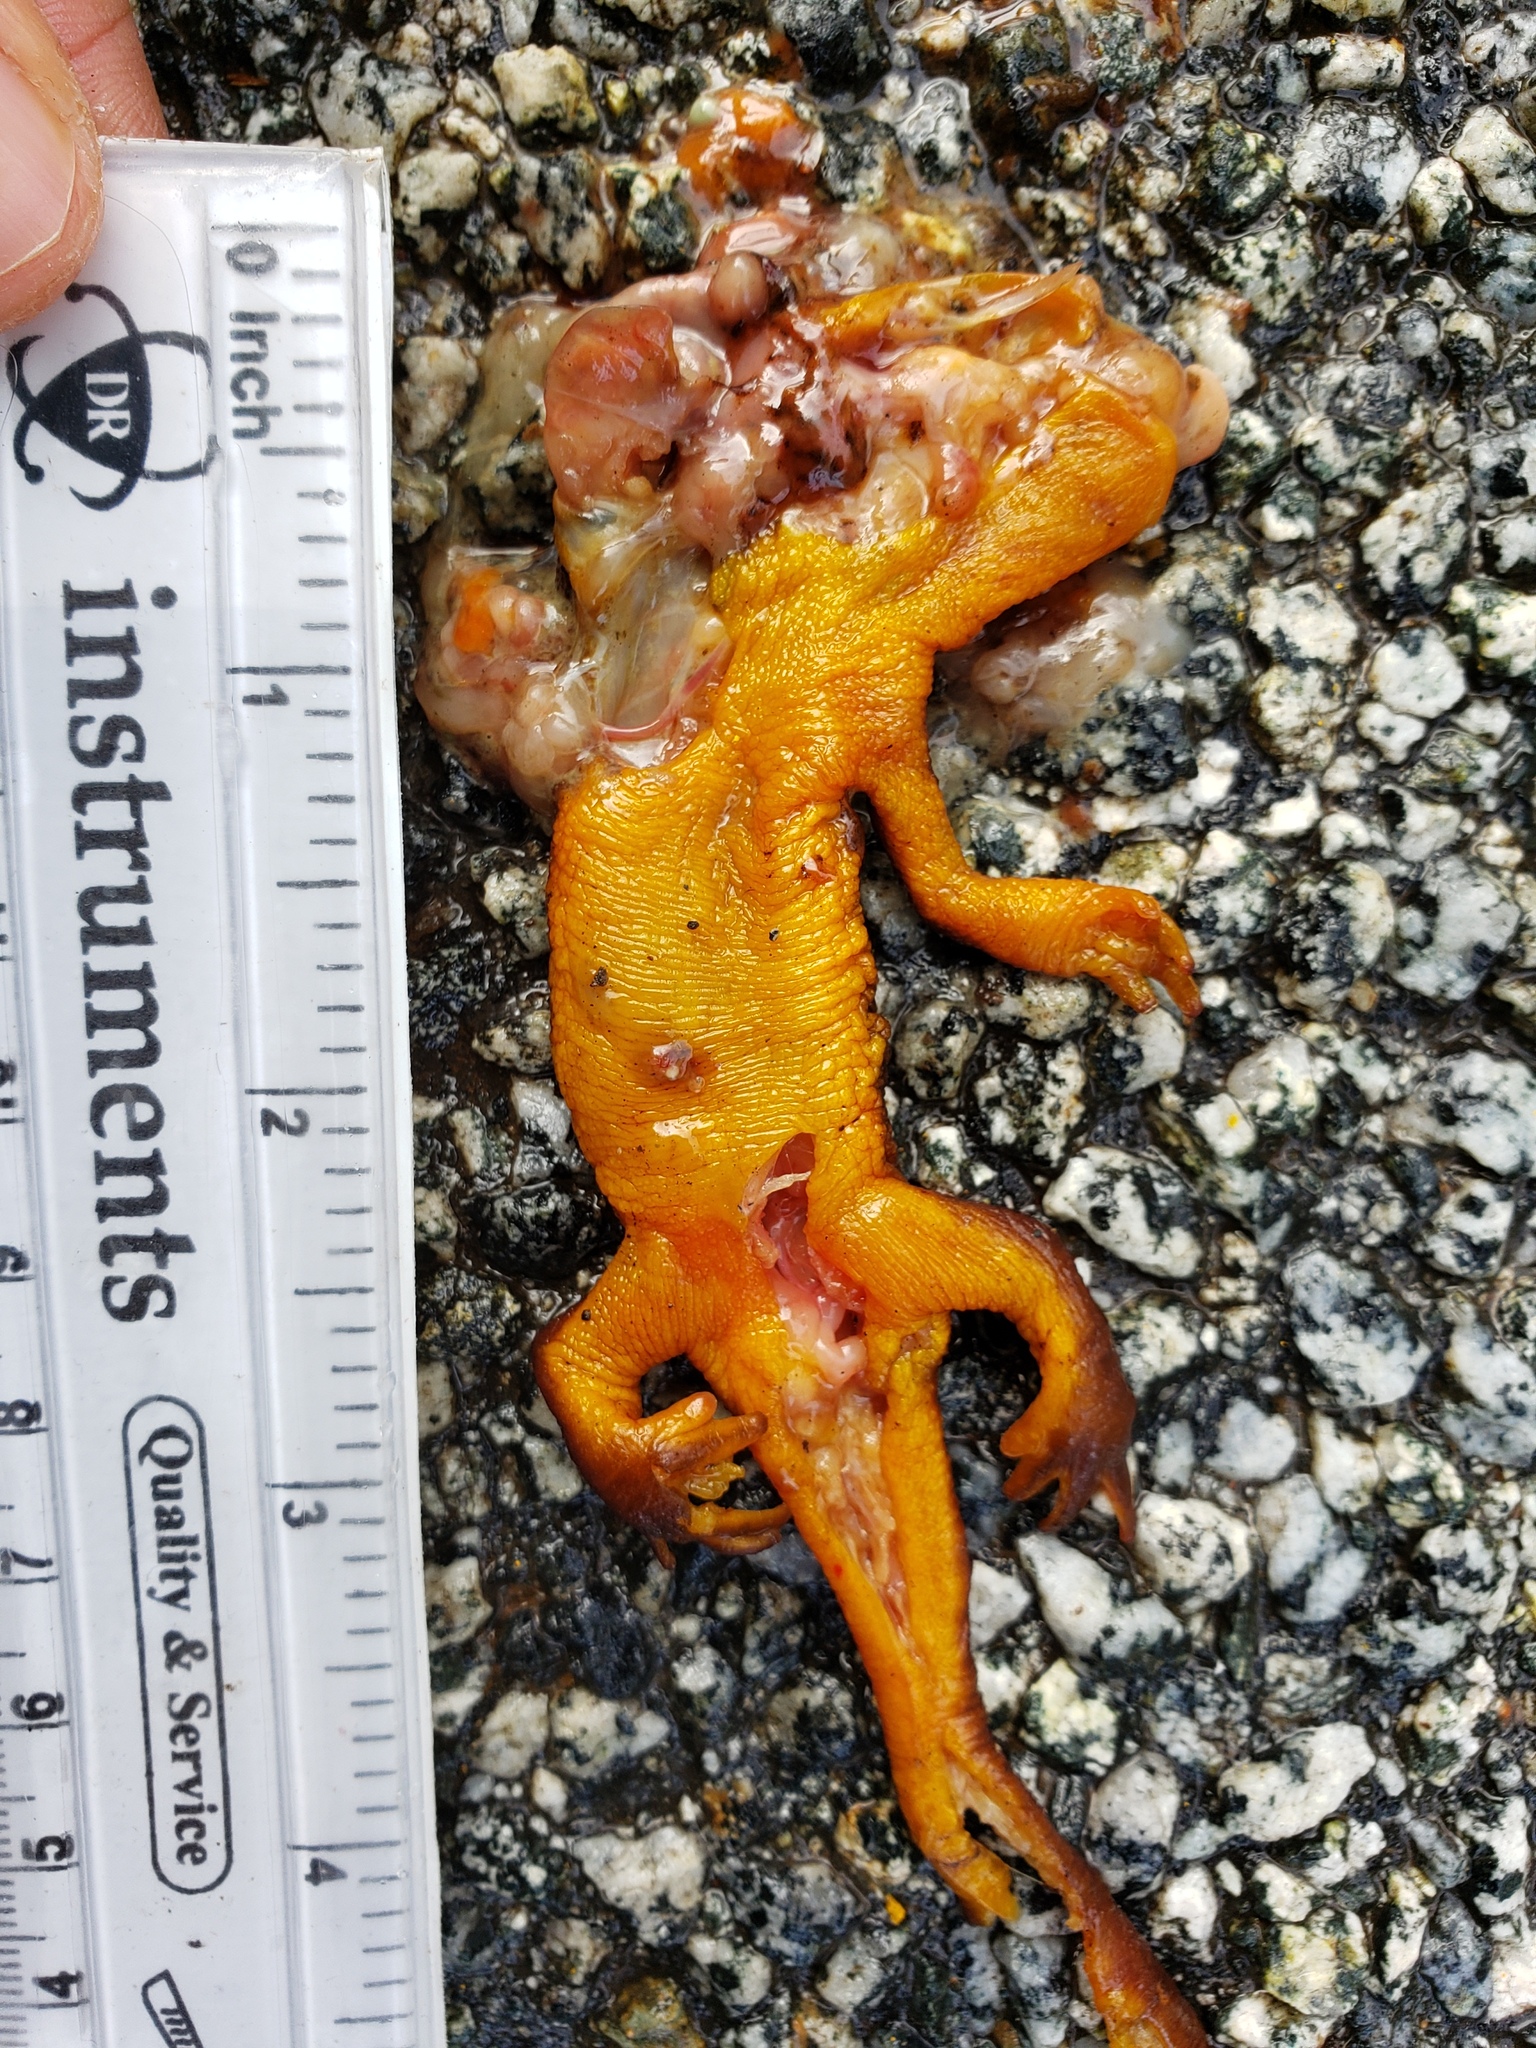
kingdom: Animalia
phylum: Chordata
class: Amphibia
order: Caudata
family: Salamandridae
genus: Taricha
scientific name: Taricha
